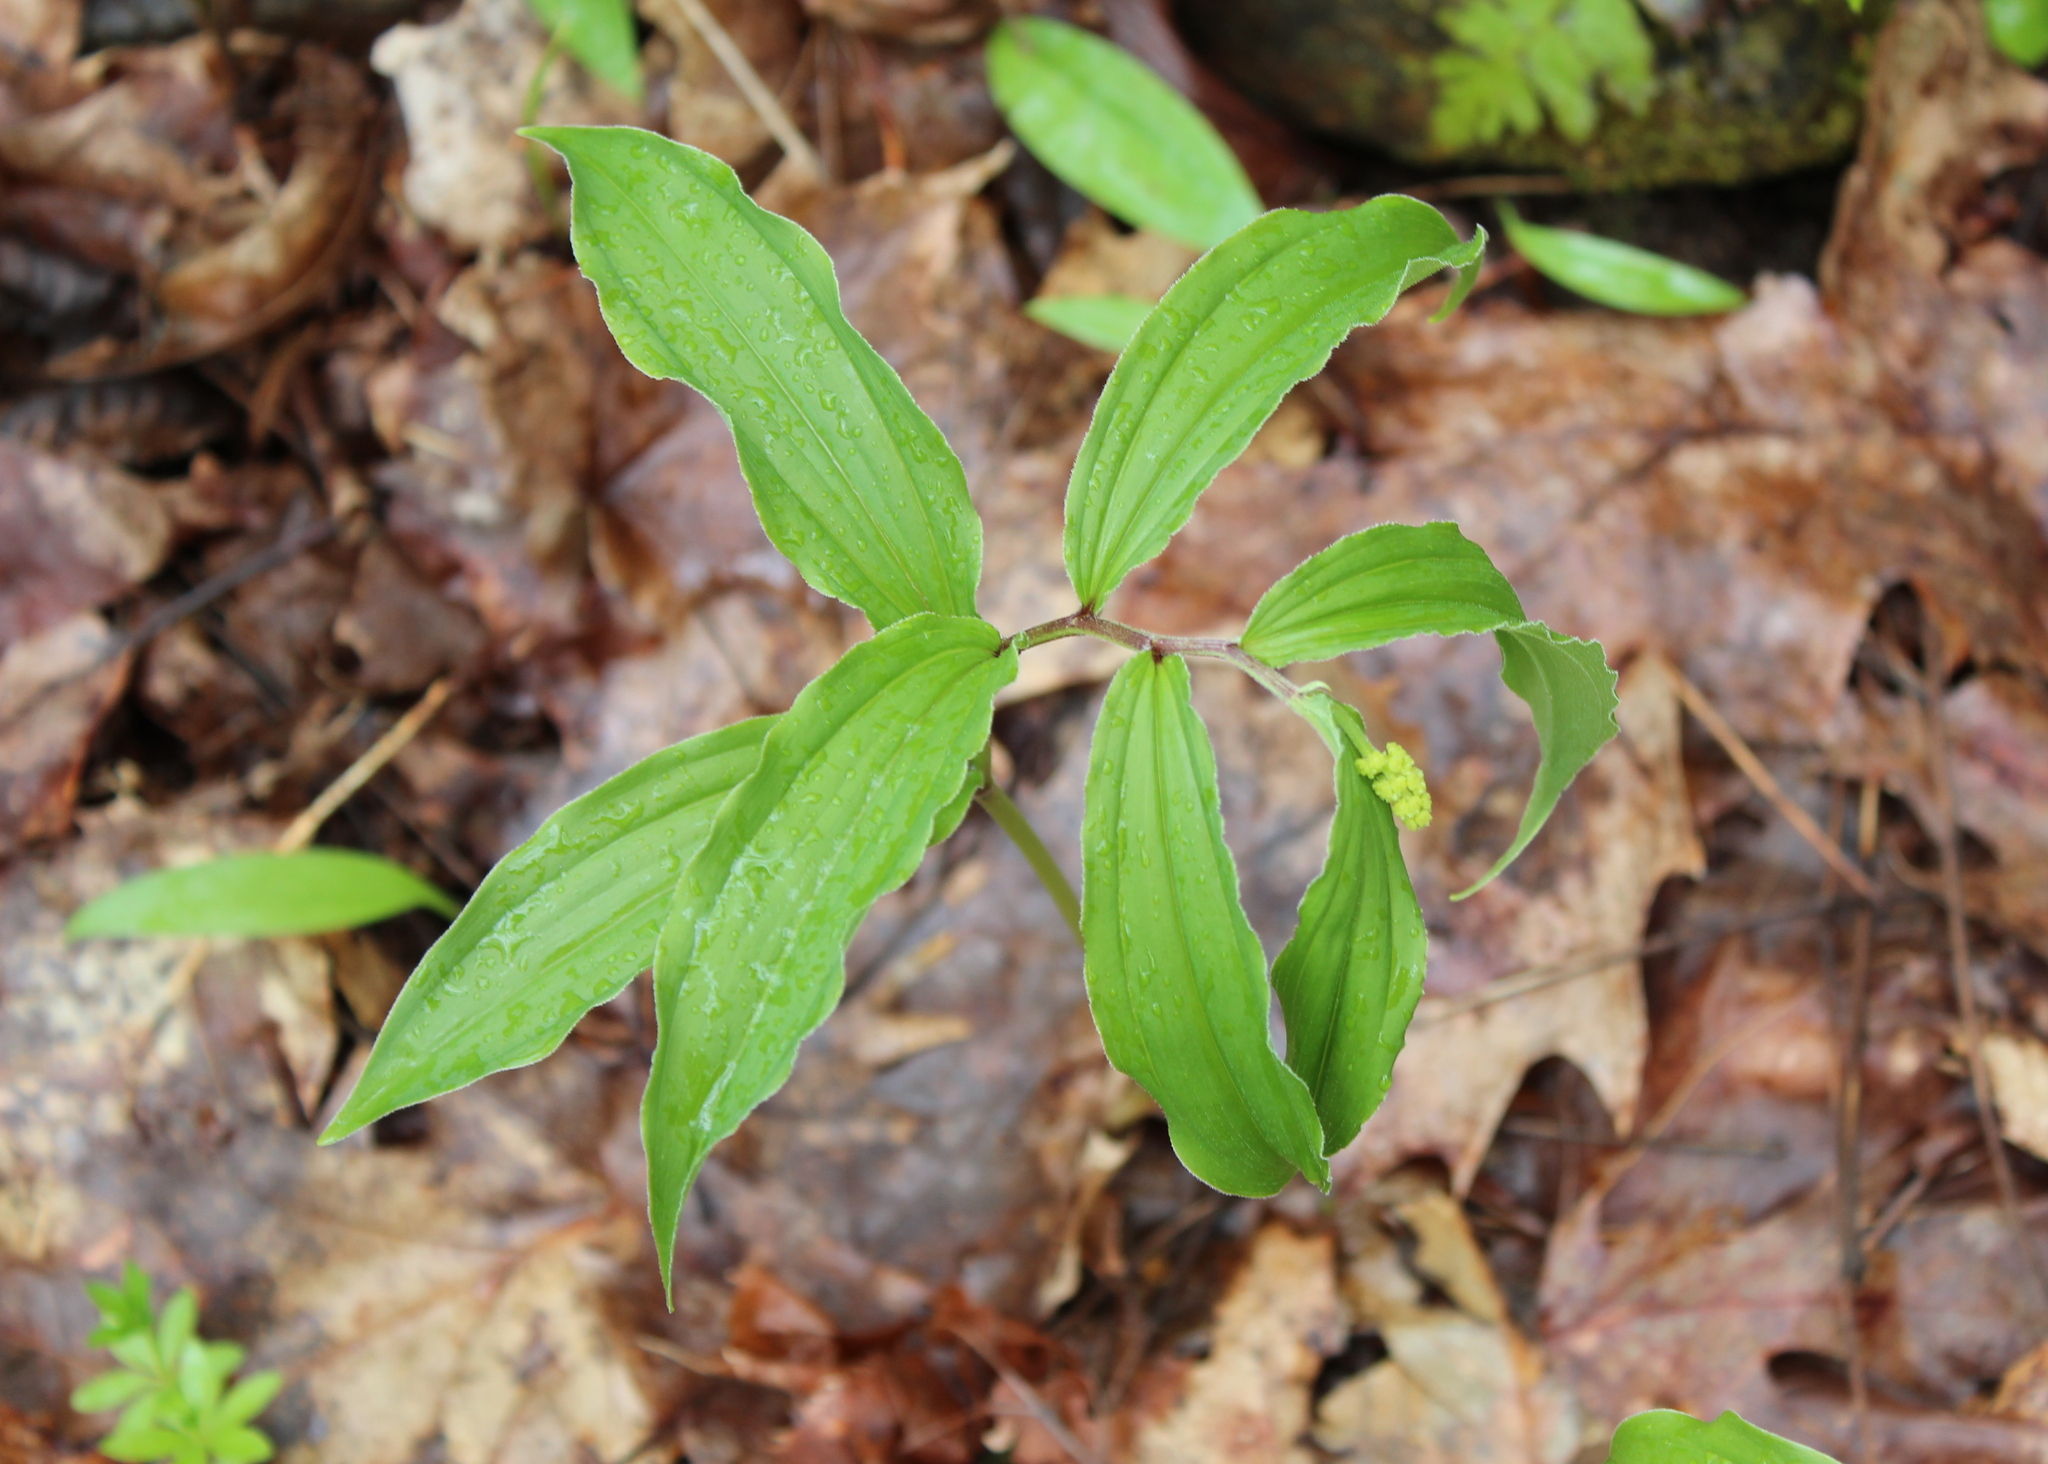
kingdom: Plantae
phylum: Tracheophyta
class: Liliopsida
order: Asparagales
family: Asparagaceae
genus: Maianthemum
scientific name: Maianthemum racemosum
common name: False spikenard
